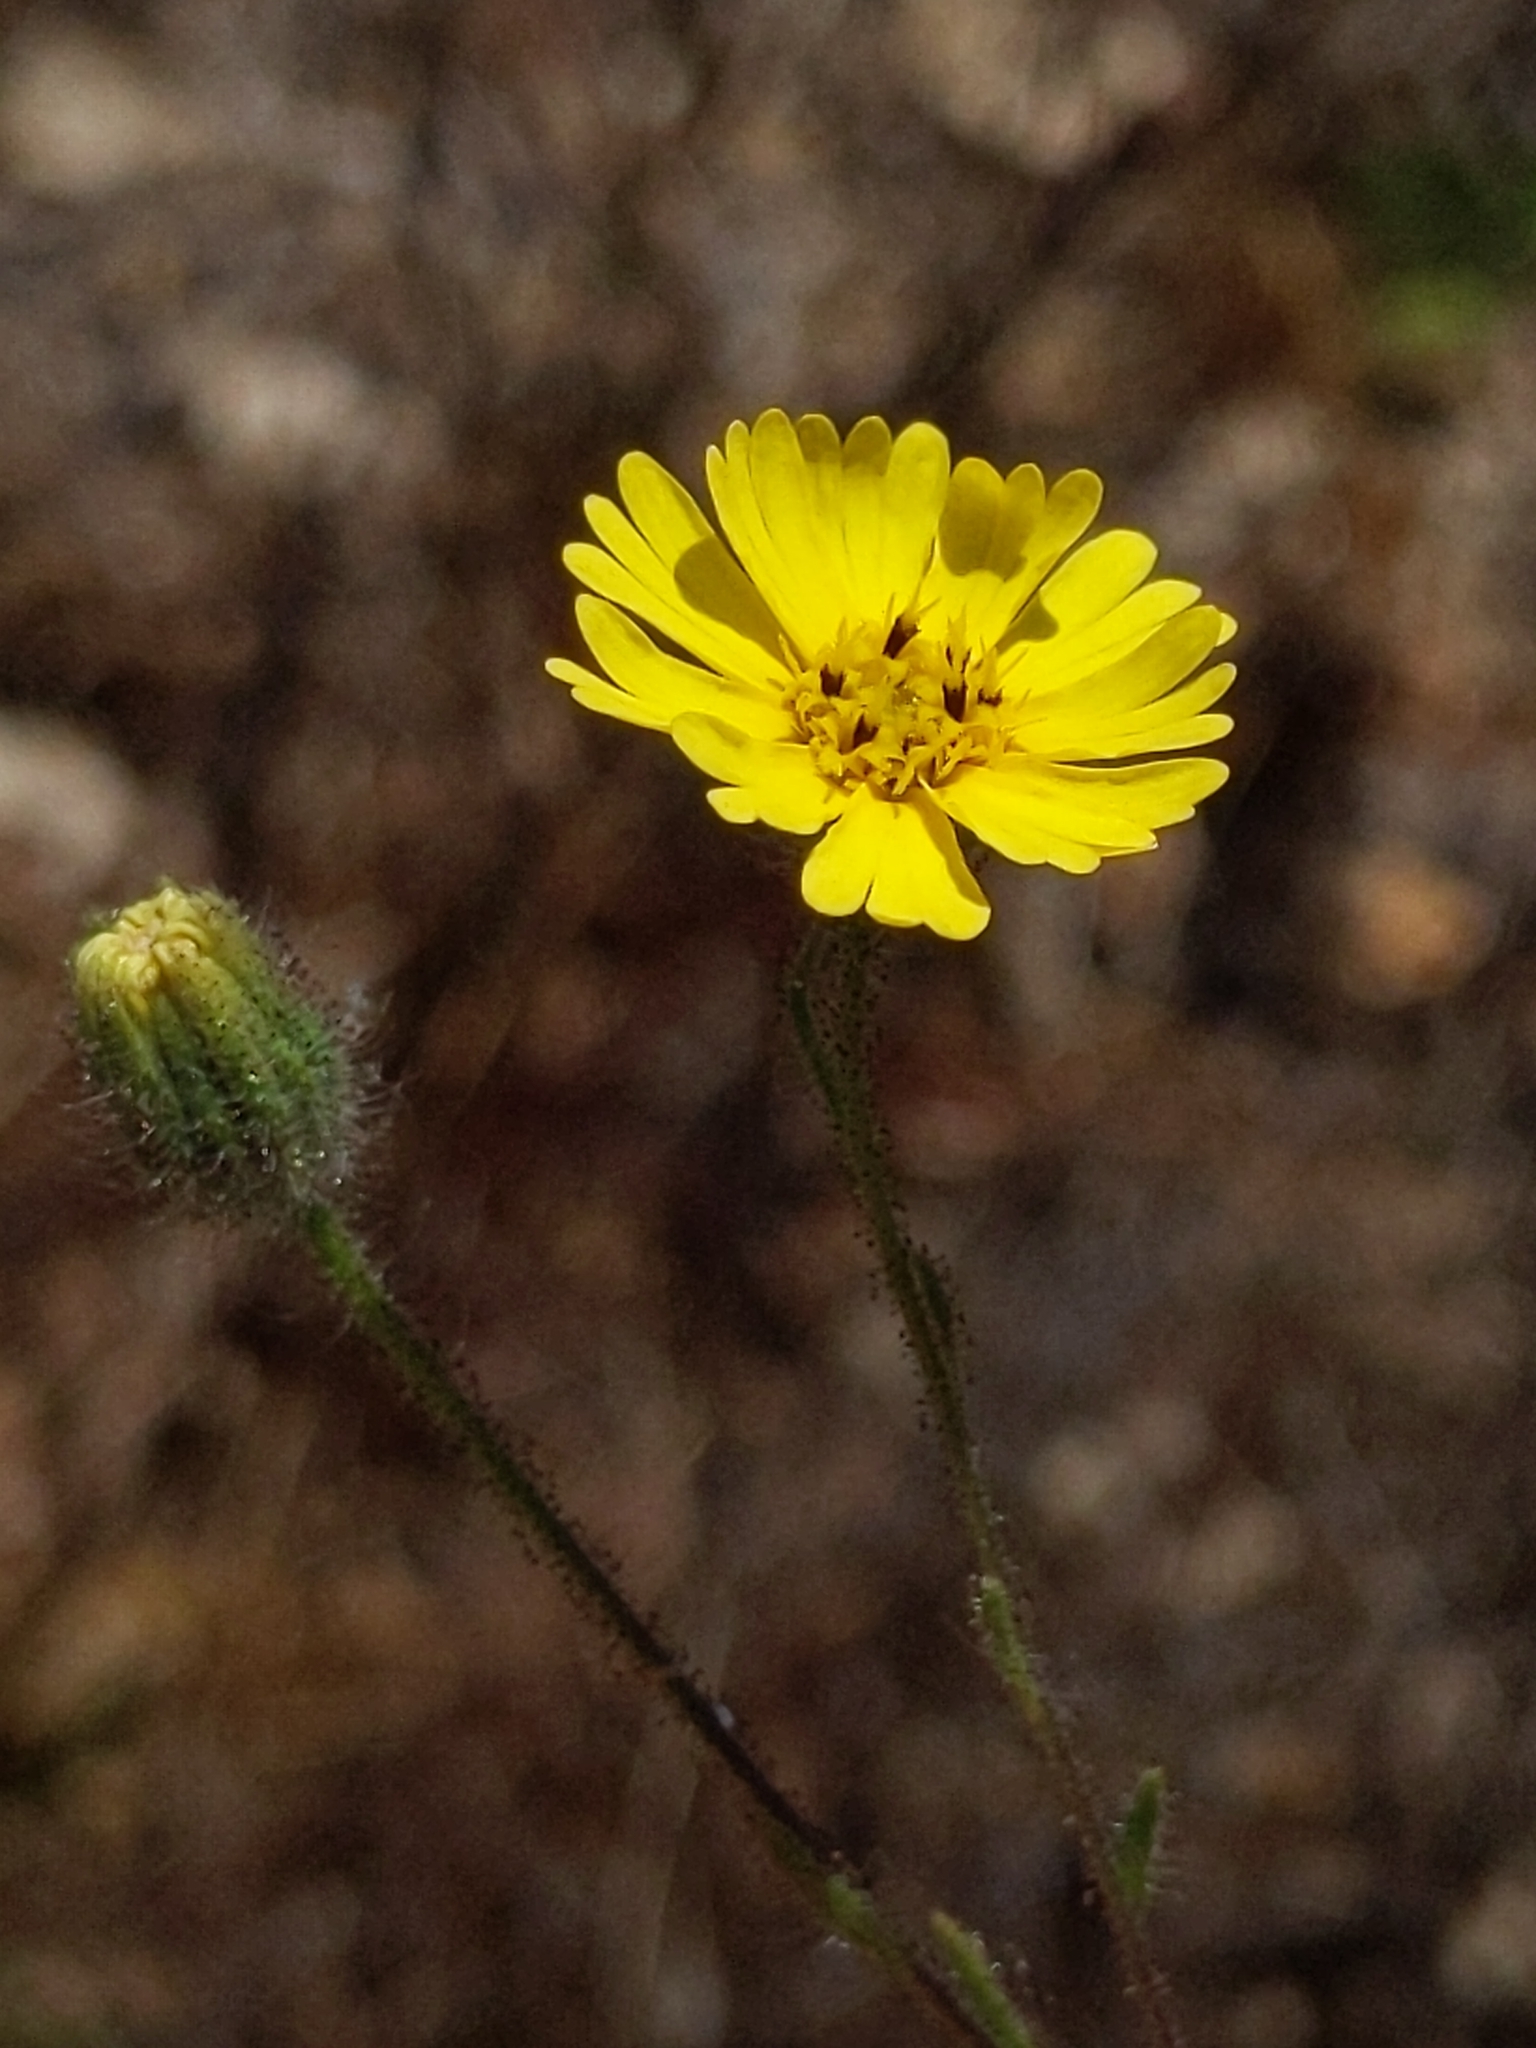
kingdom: Plantae
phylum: Tracheophyta
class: Magnoliopsida
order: Asterales
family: Asteraceae
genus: Madia
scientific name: Madia elegans
